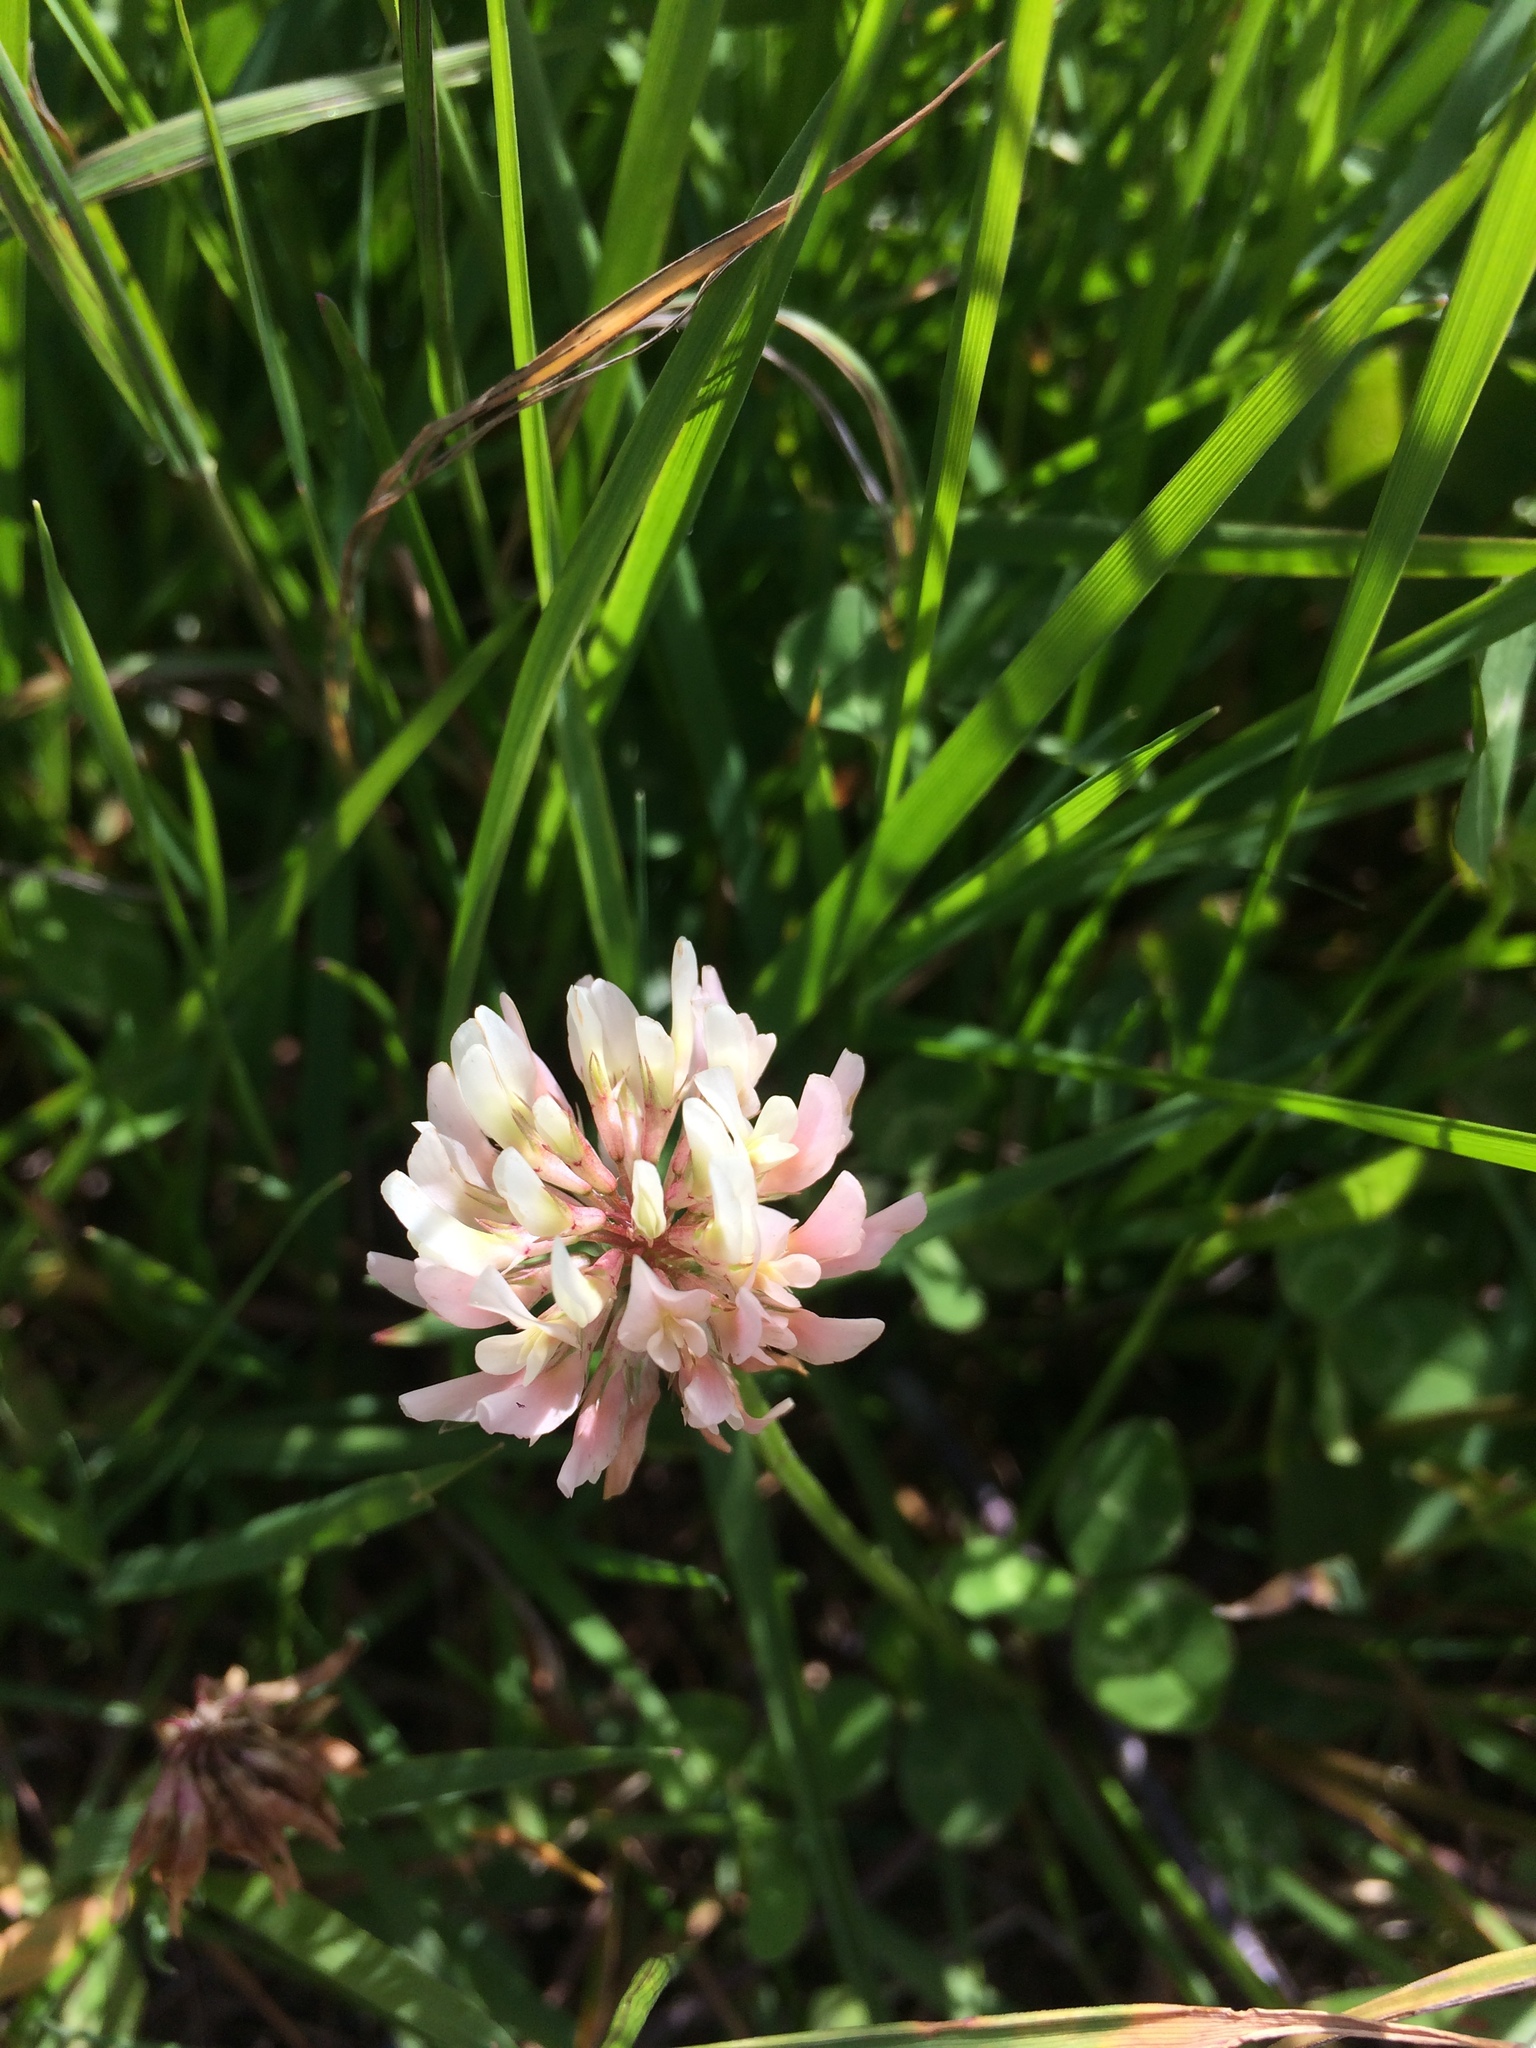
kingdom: Plantae
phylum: Tracheophyta
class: Magnoliopsida
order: Fabales
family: Fabaceae
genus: Trifolium
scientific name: Trifolium repens
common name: White clover
